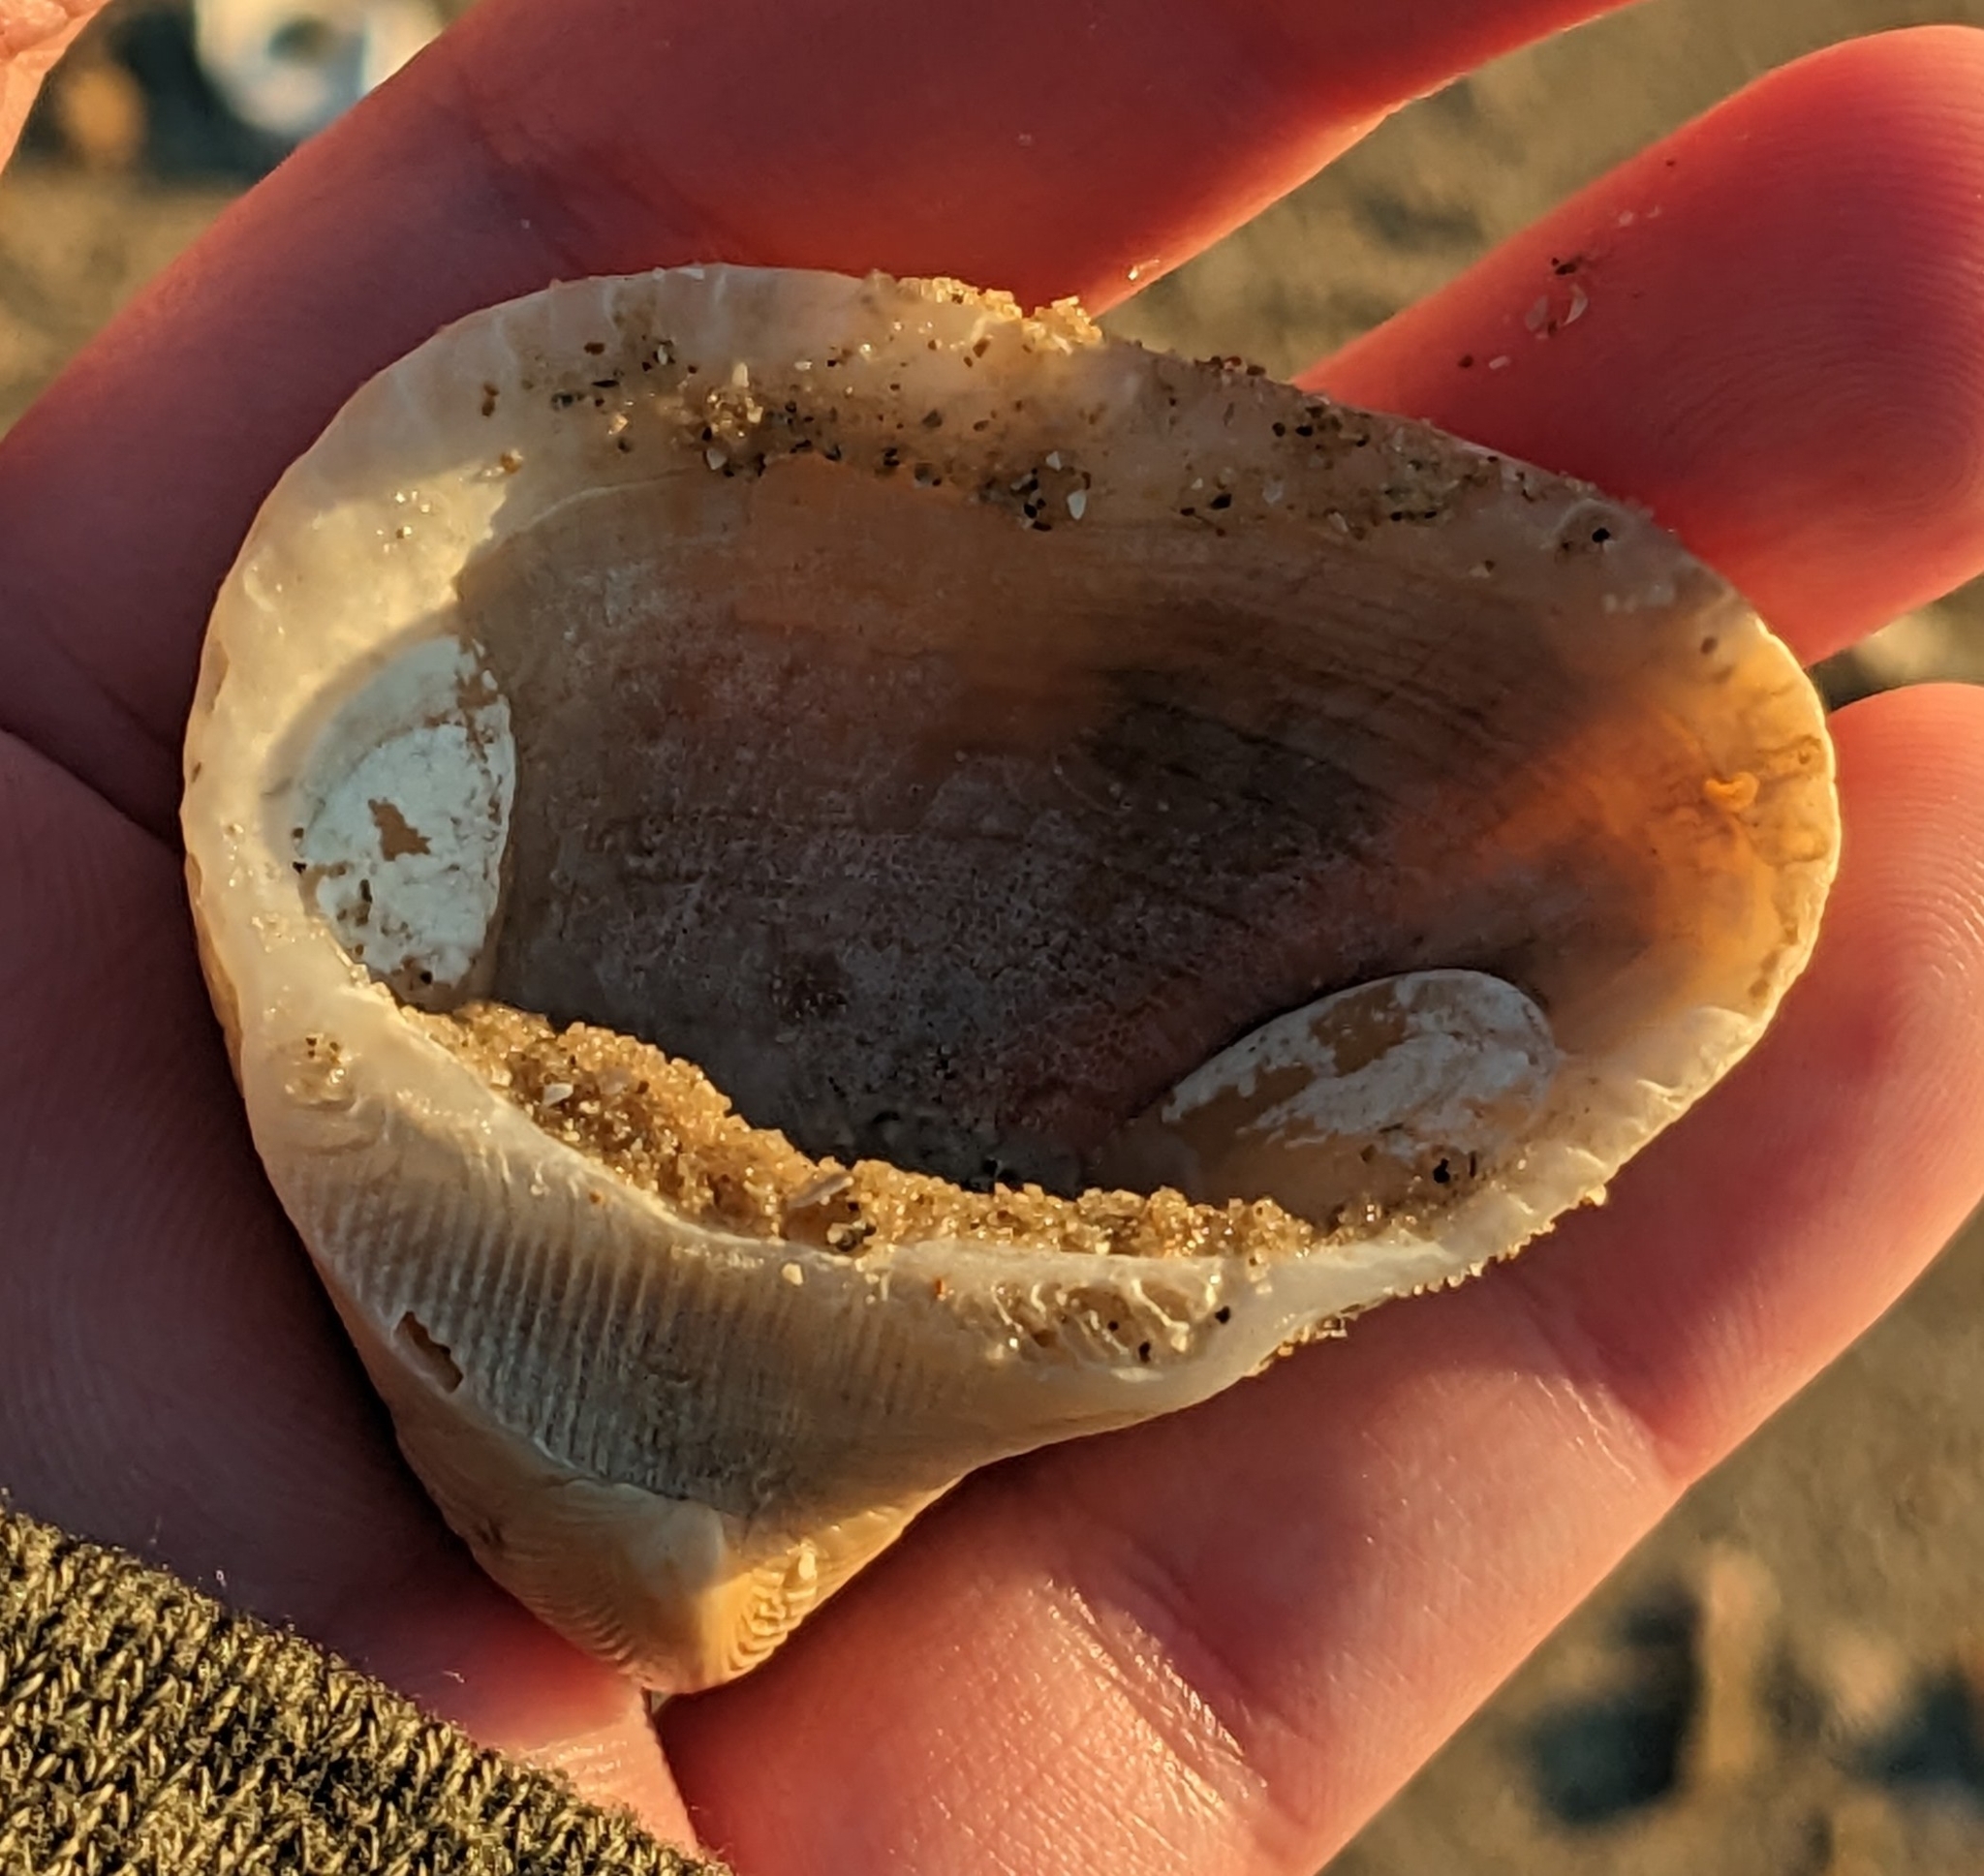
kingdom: Animalia
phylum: Mollusca
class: Bivalvia
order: Arcida
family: Noetiidae
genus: Noetia
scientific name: Noetia ponderosa
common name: Ponderous ark
